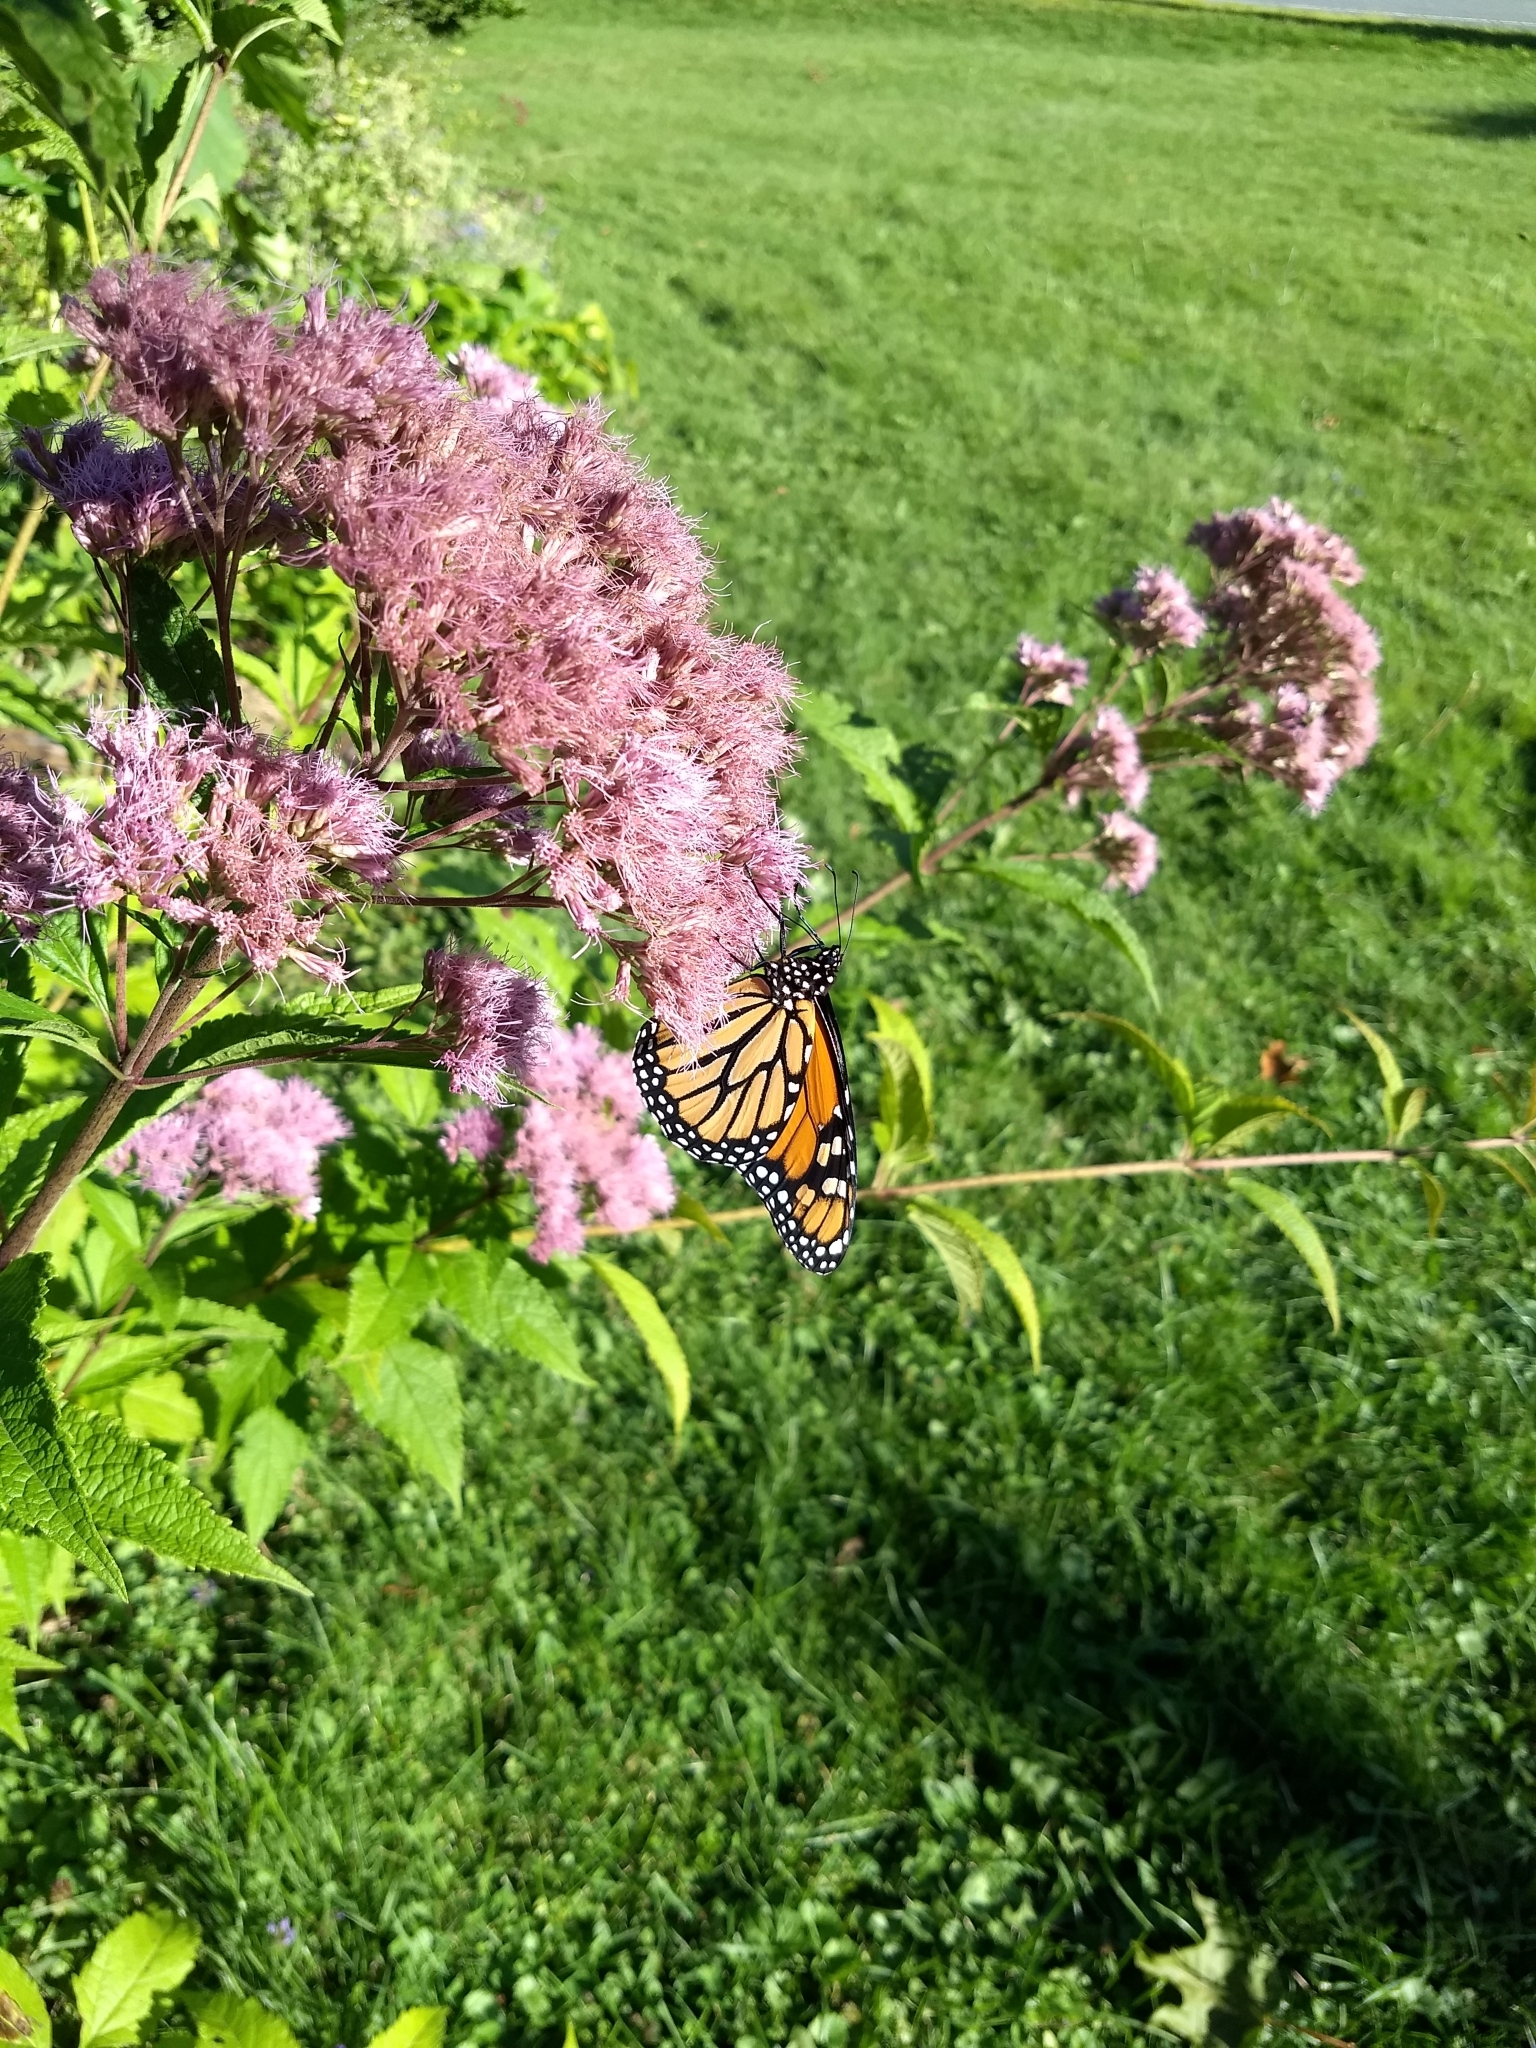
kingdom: Animalia
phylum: Arthropoda
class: Insecta
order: Lepidoptera
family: Nymphalidae
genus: Danaus
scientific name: Danaus plexippus
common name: Monarch
